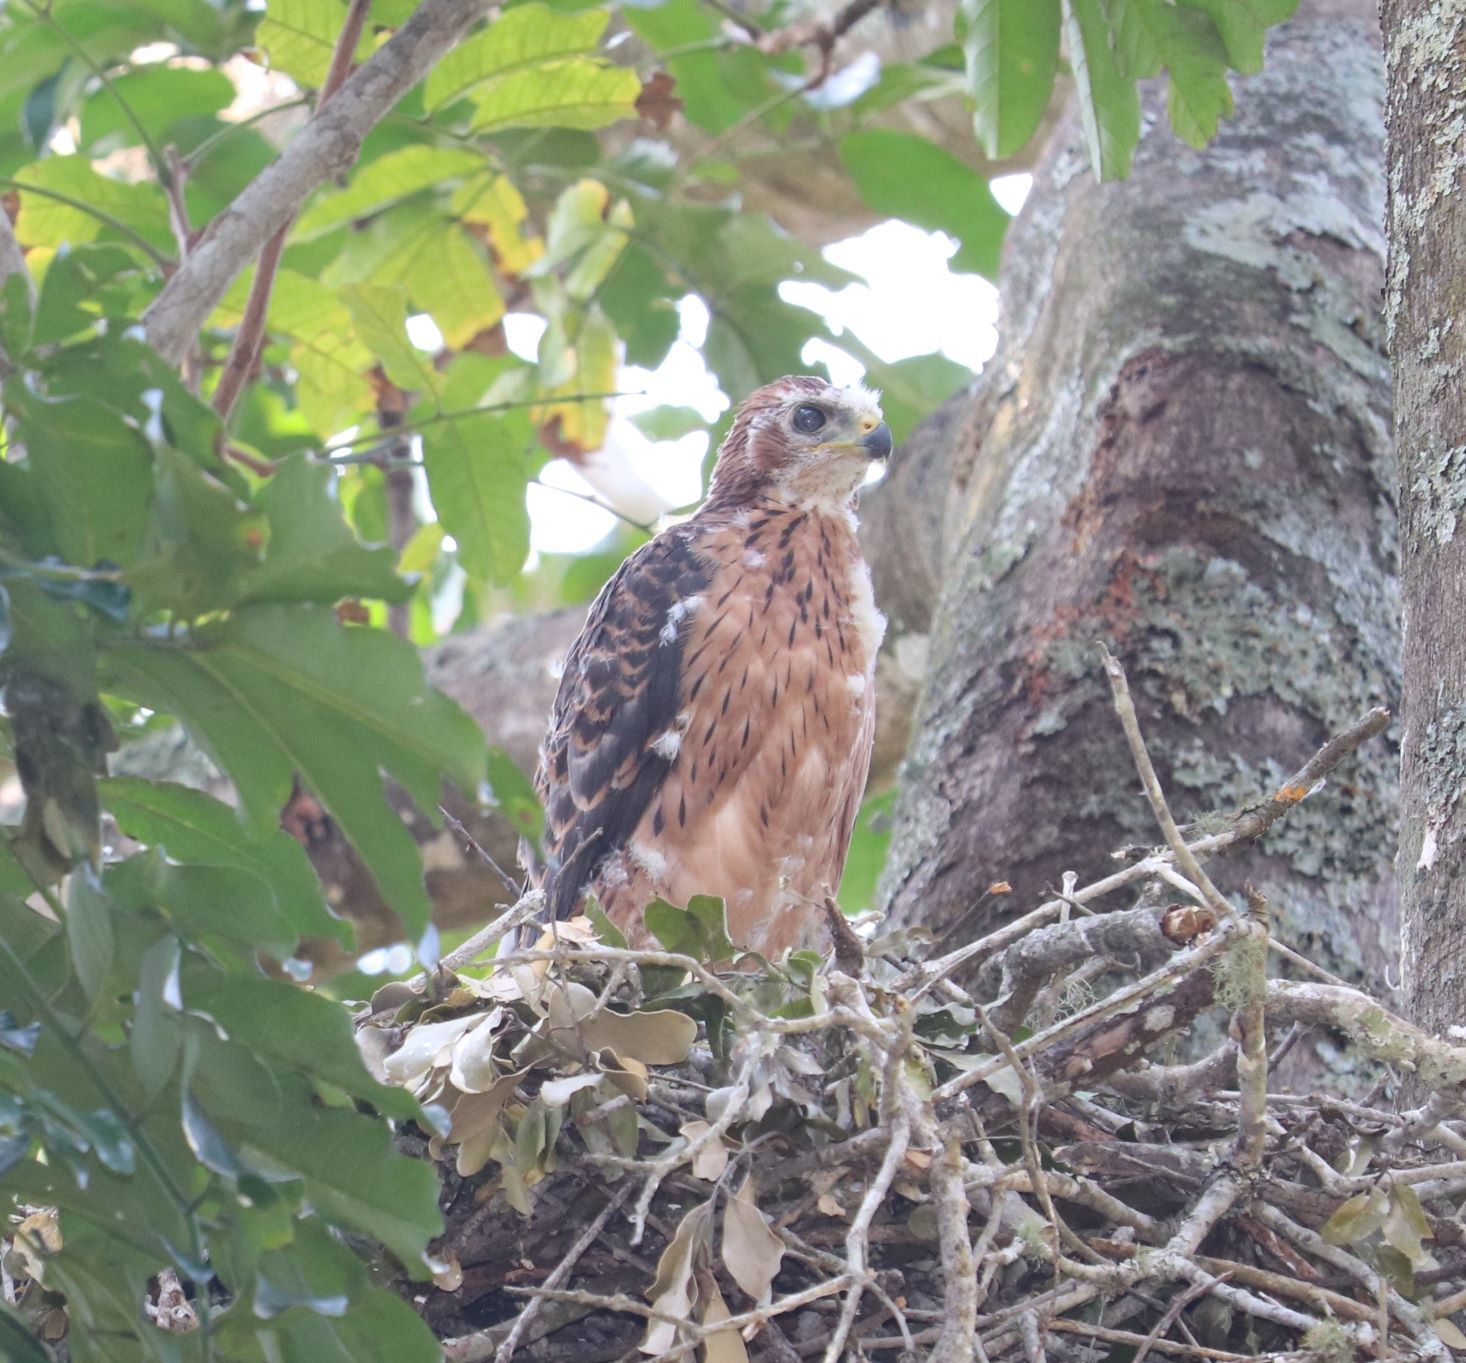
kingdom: Animalia
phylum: Chordata
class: Aves
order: Accipitriformes
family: Accipitridae
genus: Accipiter
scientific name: Accipiter melanoleucus
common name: Black sparrowhawk
